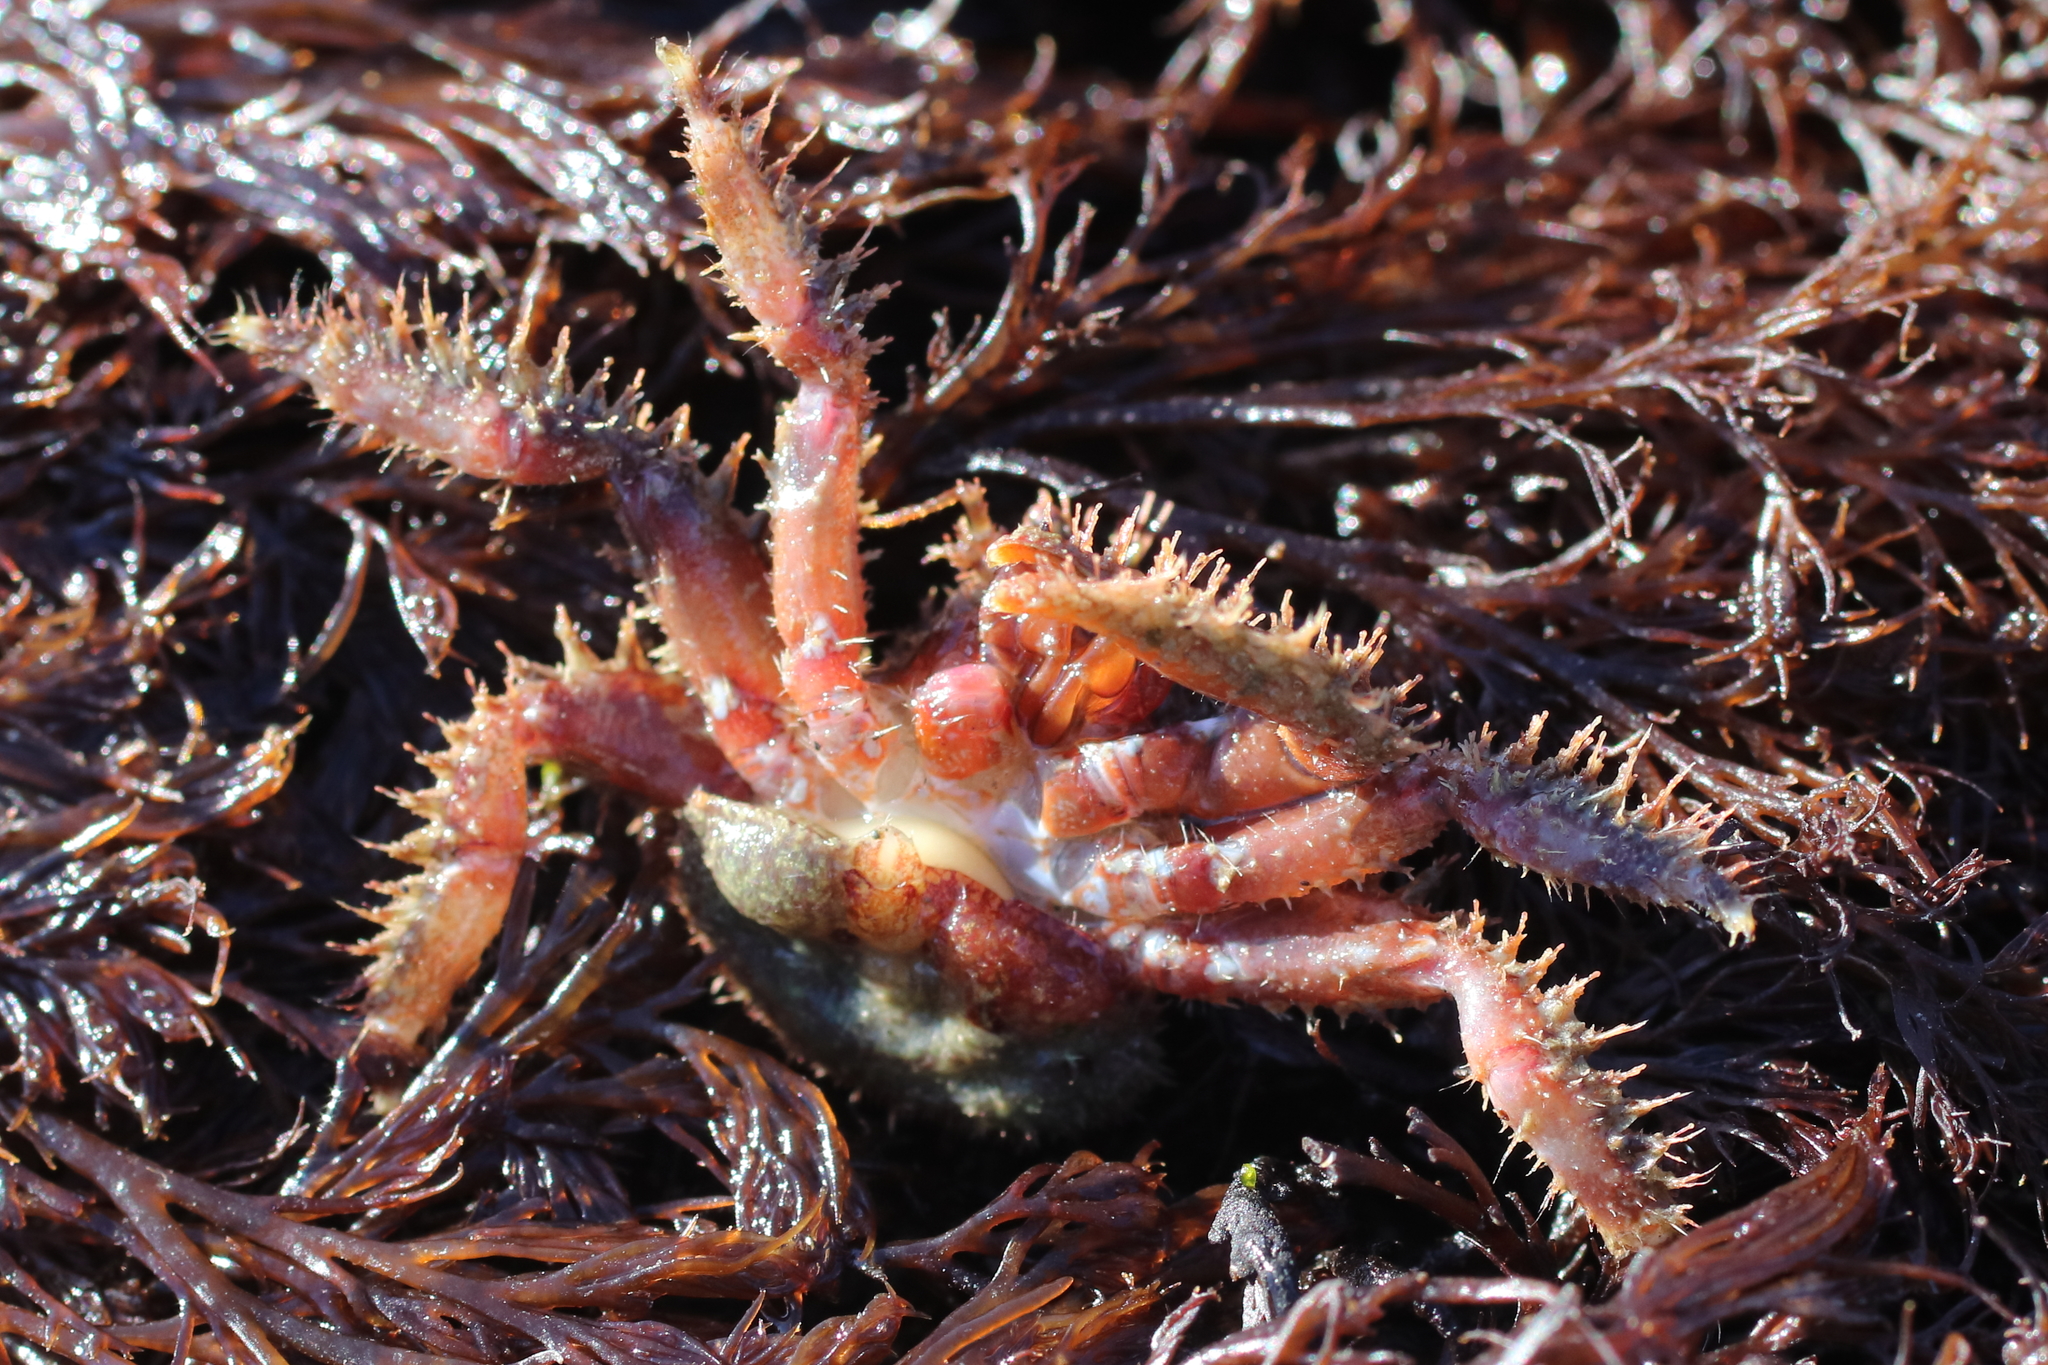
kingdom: Animalia
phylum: Arthropoda
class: Malacostraca
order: Decapoda
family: Hapalogastridae
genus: Hapalogaster
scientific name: Hapalogaster mertensii
